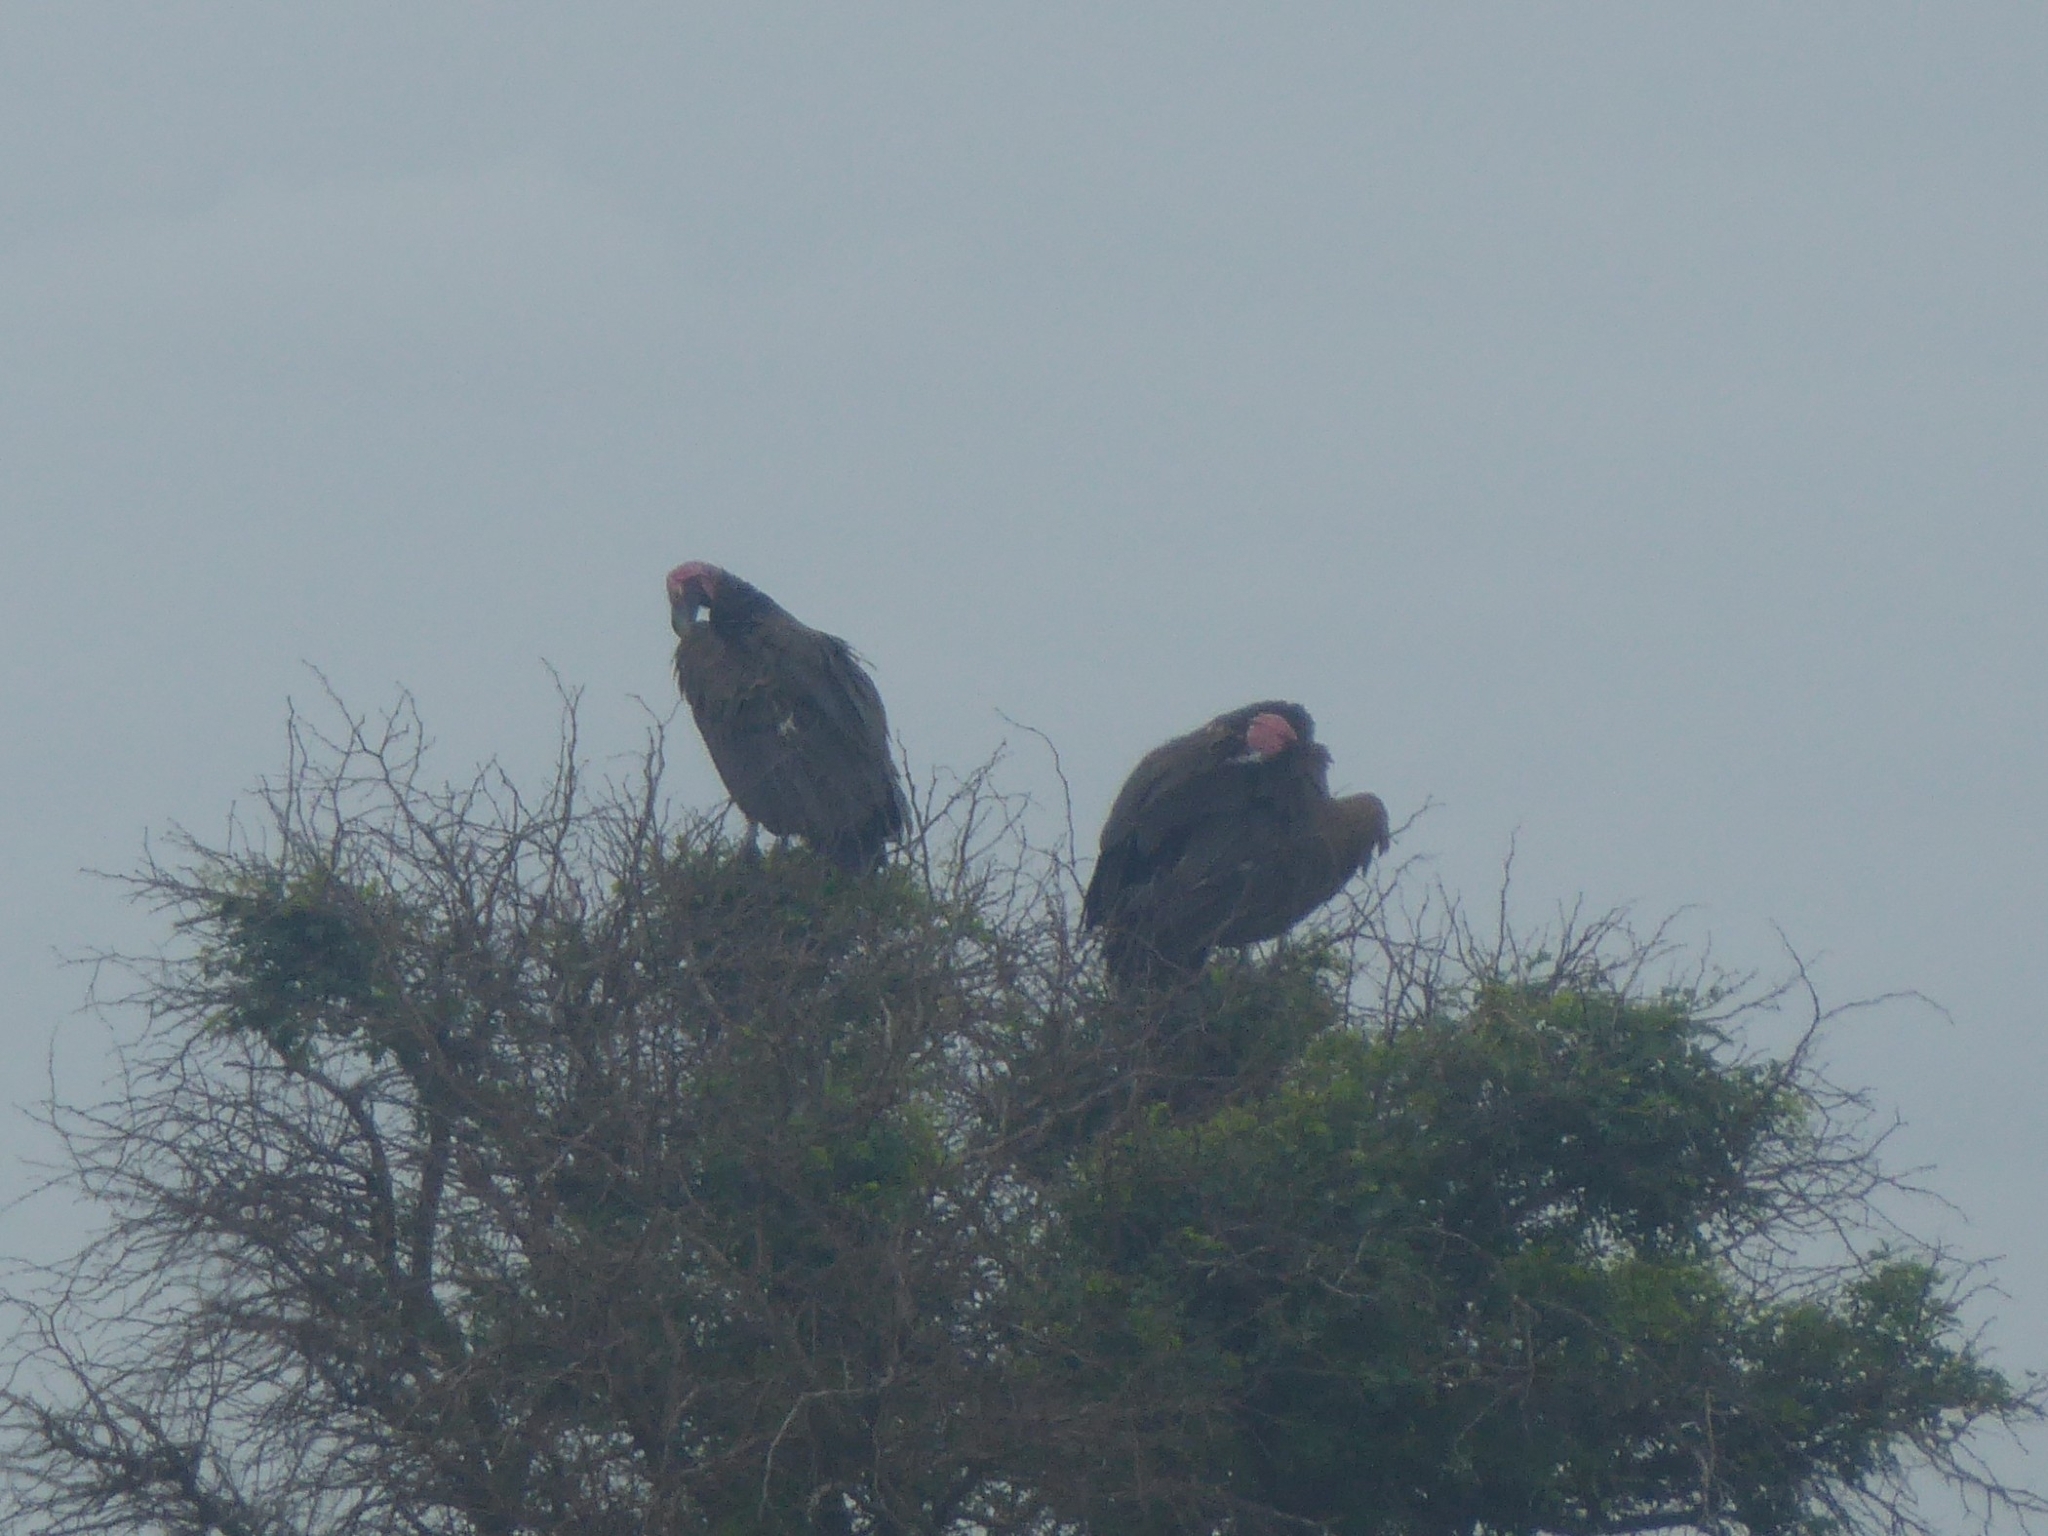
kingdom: Animalia
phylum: Chordata
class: Aves
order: Accipitriformes
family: Accipitridae
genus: Torgos
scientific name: Torgos tracheliotos
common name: Lappet-faced vulture
